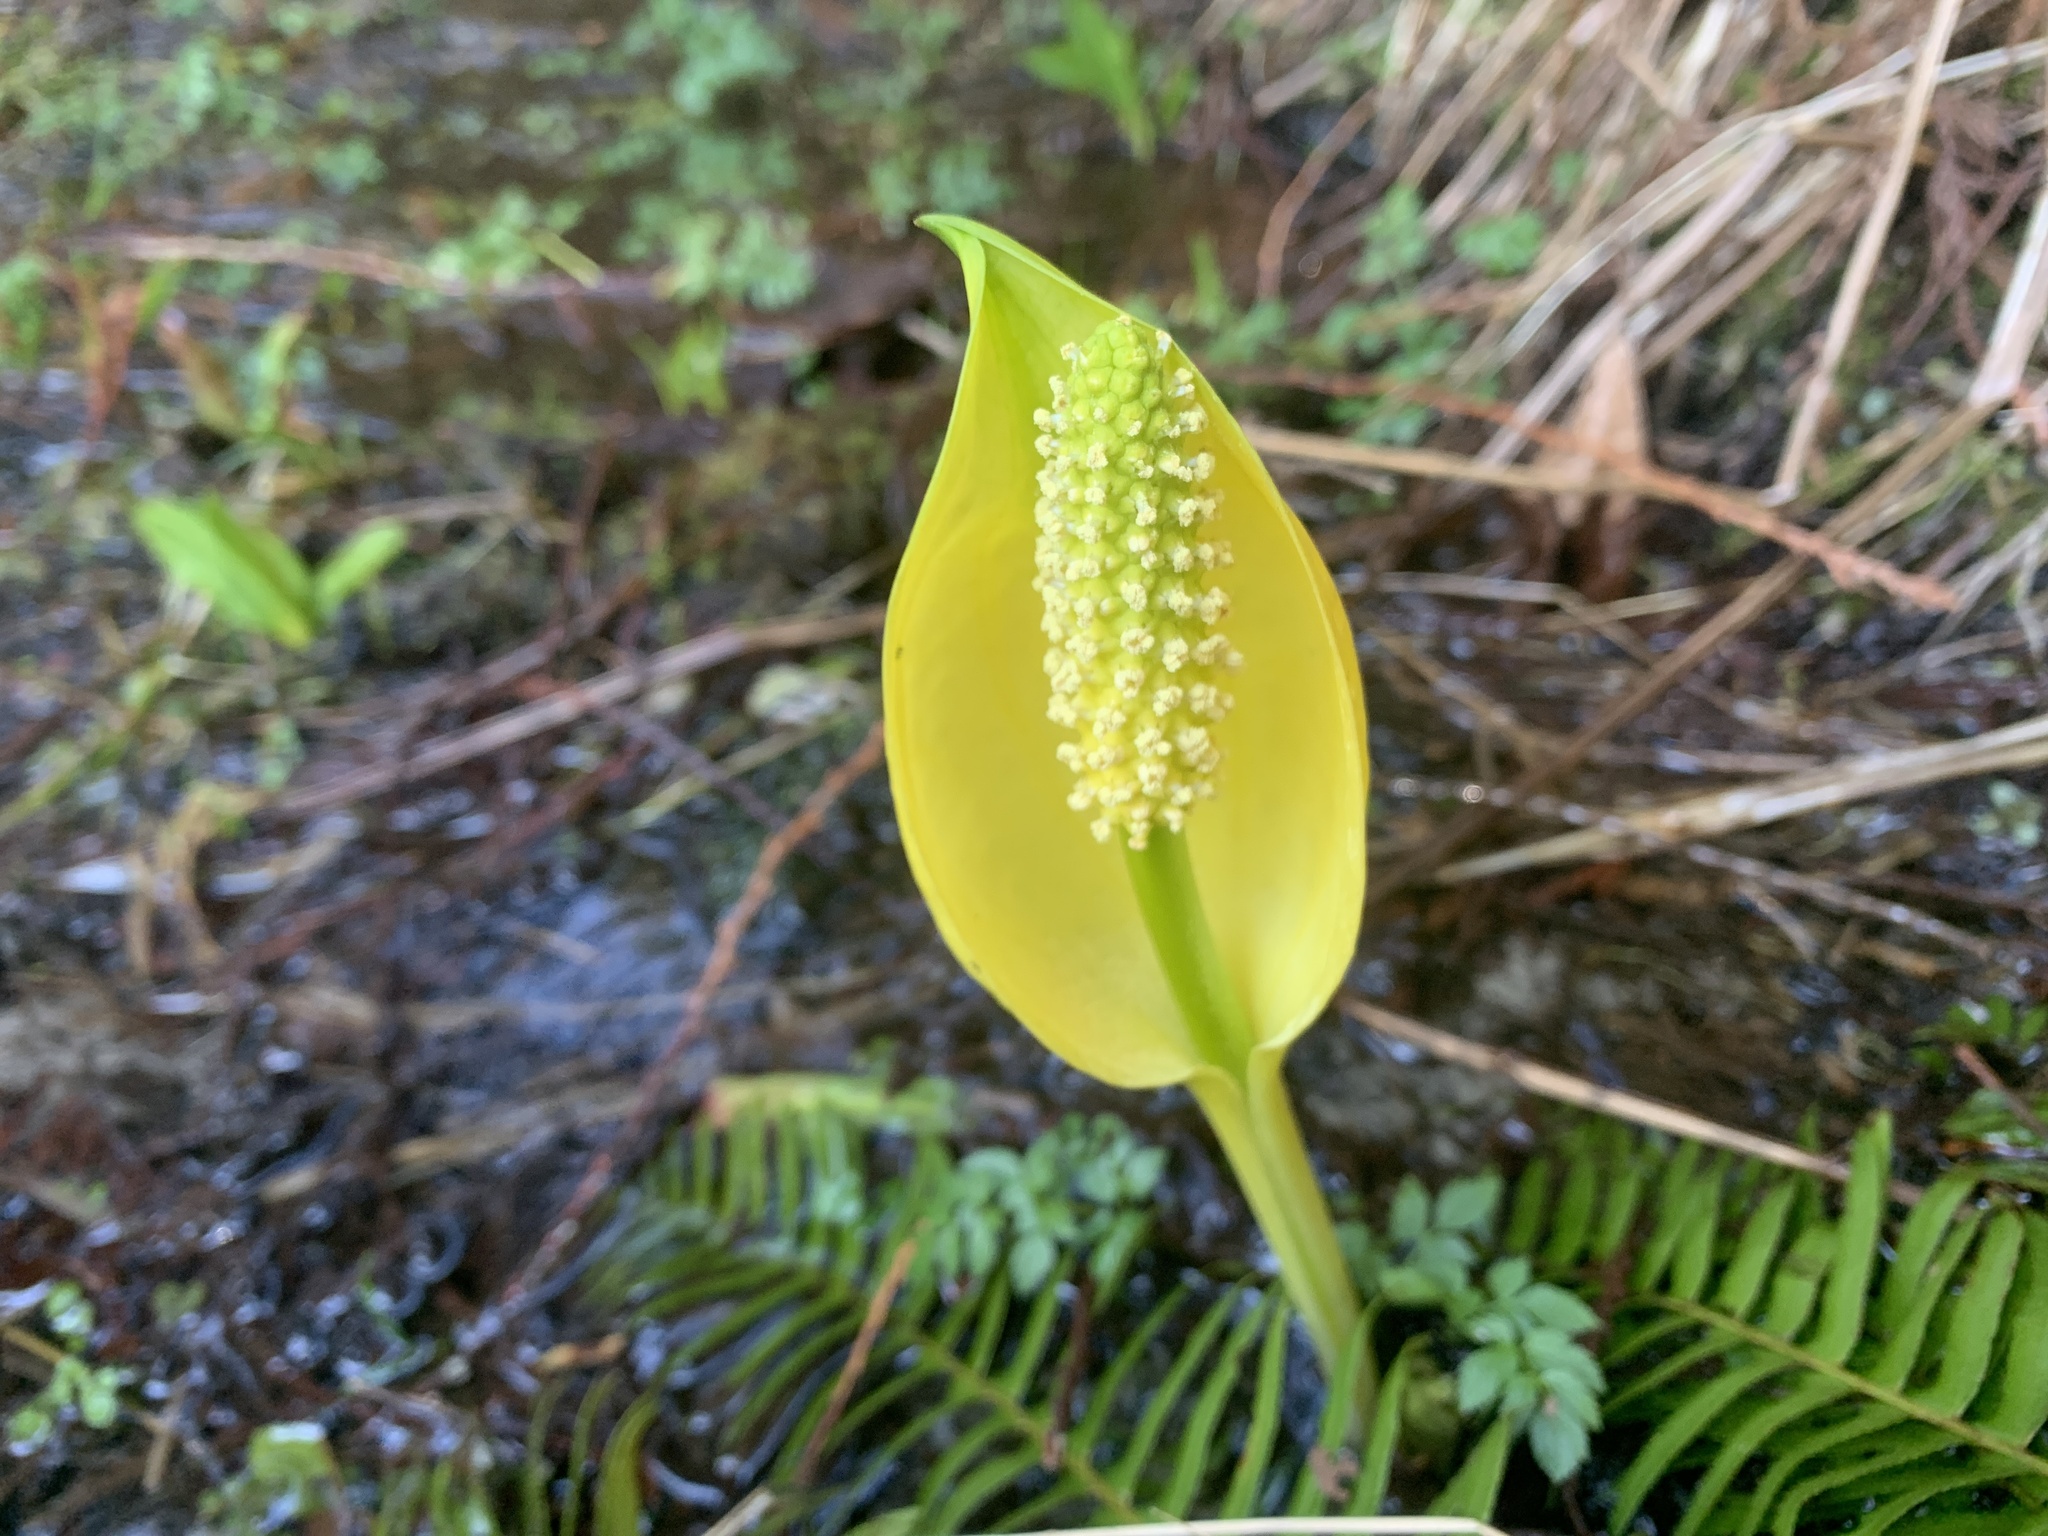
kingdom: Plantae
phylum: Tracheophyta
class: Liliopsida
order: Alismatales
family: Araceae
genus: Lysichiton
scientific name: Lysichiton americanus
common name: American skunk cabbage
